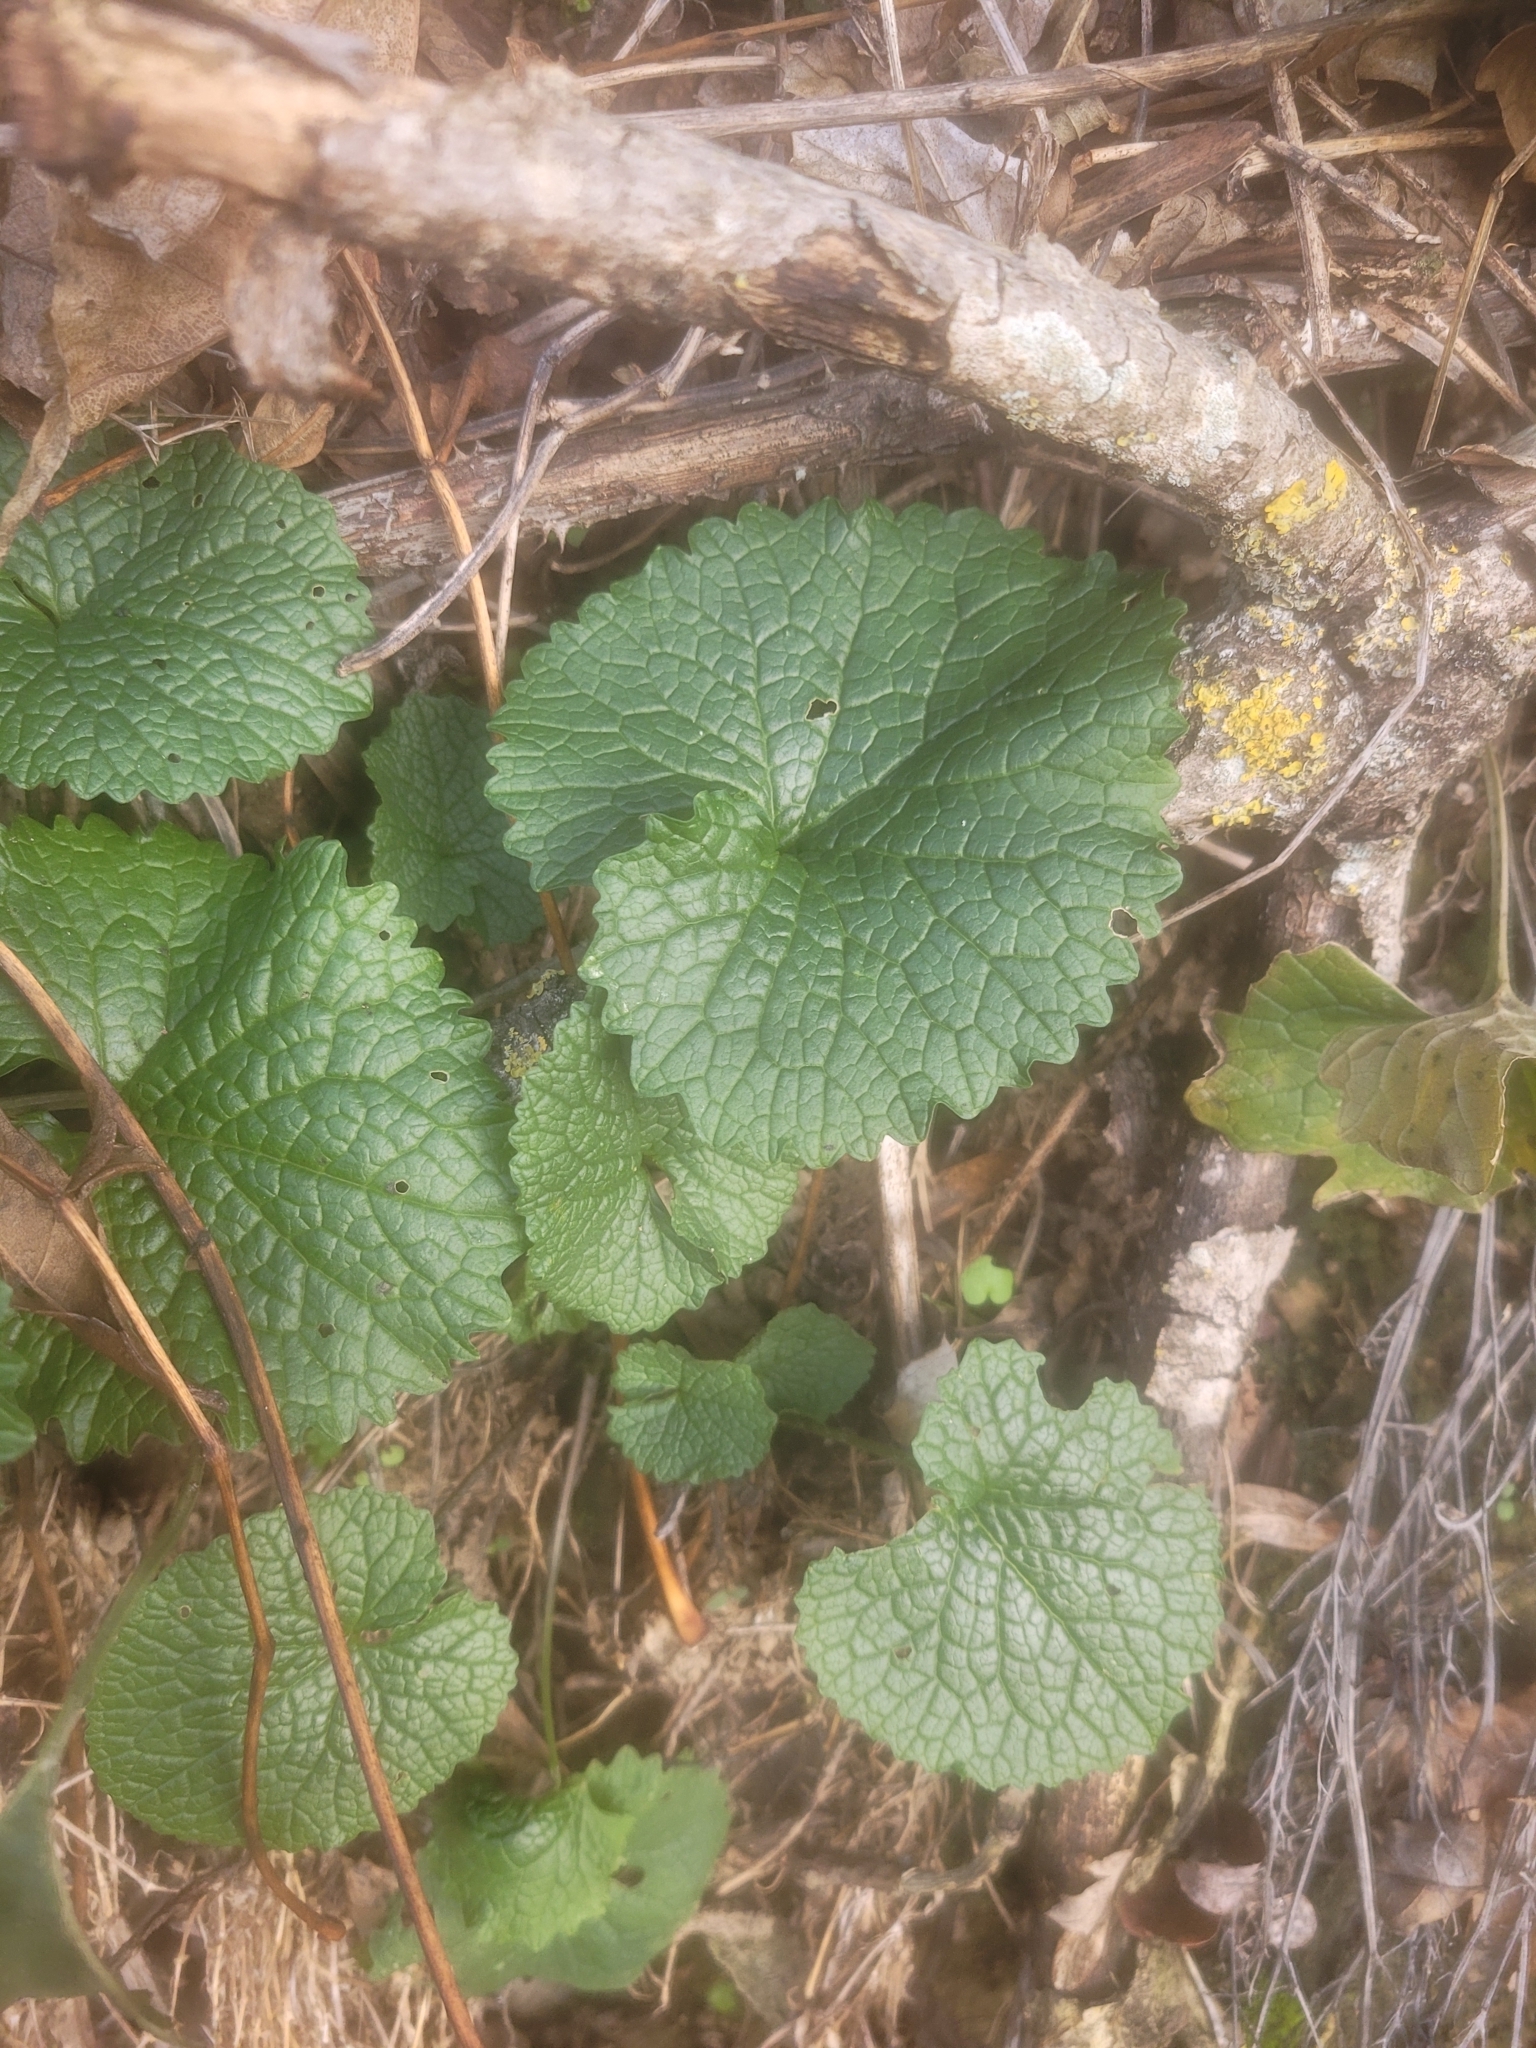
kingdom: Plantae
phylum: Tracheophyta
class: Magnoliopsida
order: Brassicales
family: Brassicaceae
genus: Alliaria
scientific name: Alliaria petiolata
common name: Garlic mustard
